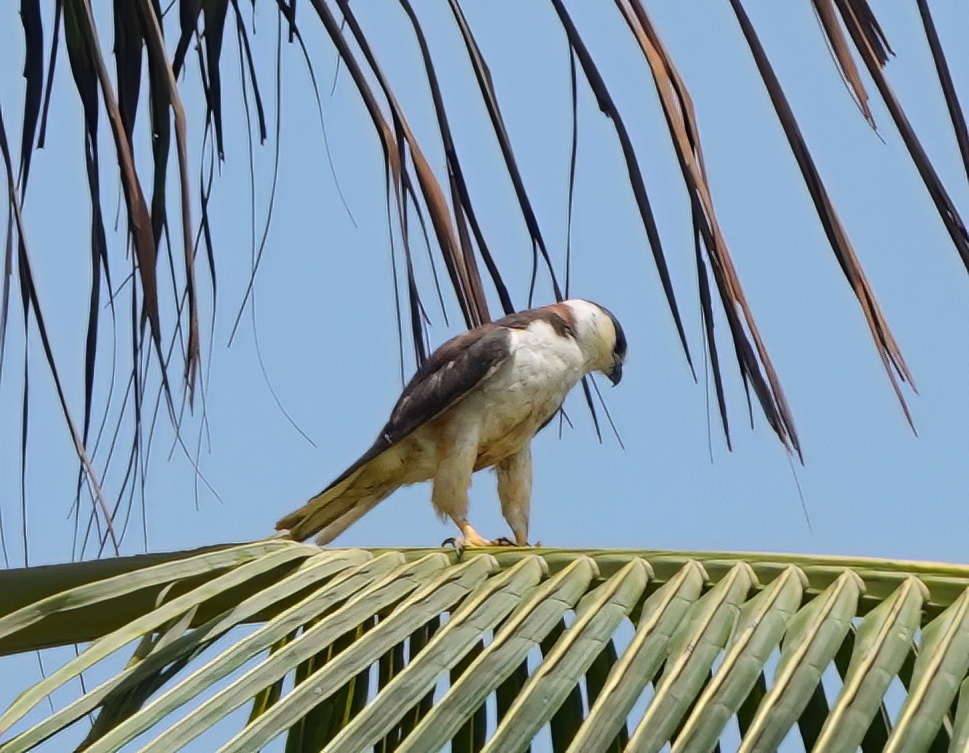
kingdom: Animalia
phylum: Chordata
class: Aves
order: Accipitriformes
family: Accipitridae
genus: Gampsonyx
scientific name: Gampsonyx swainsonii
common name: Pearl kite
